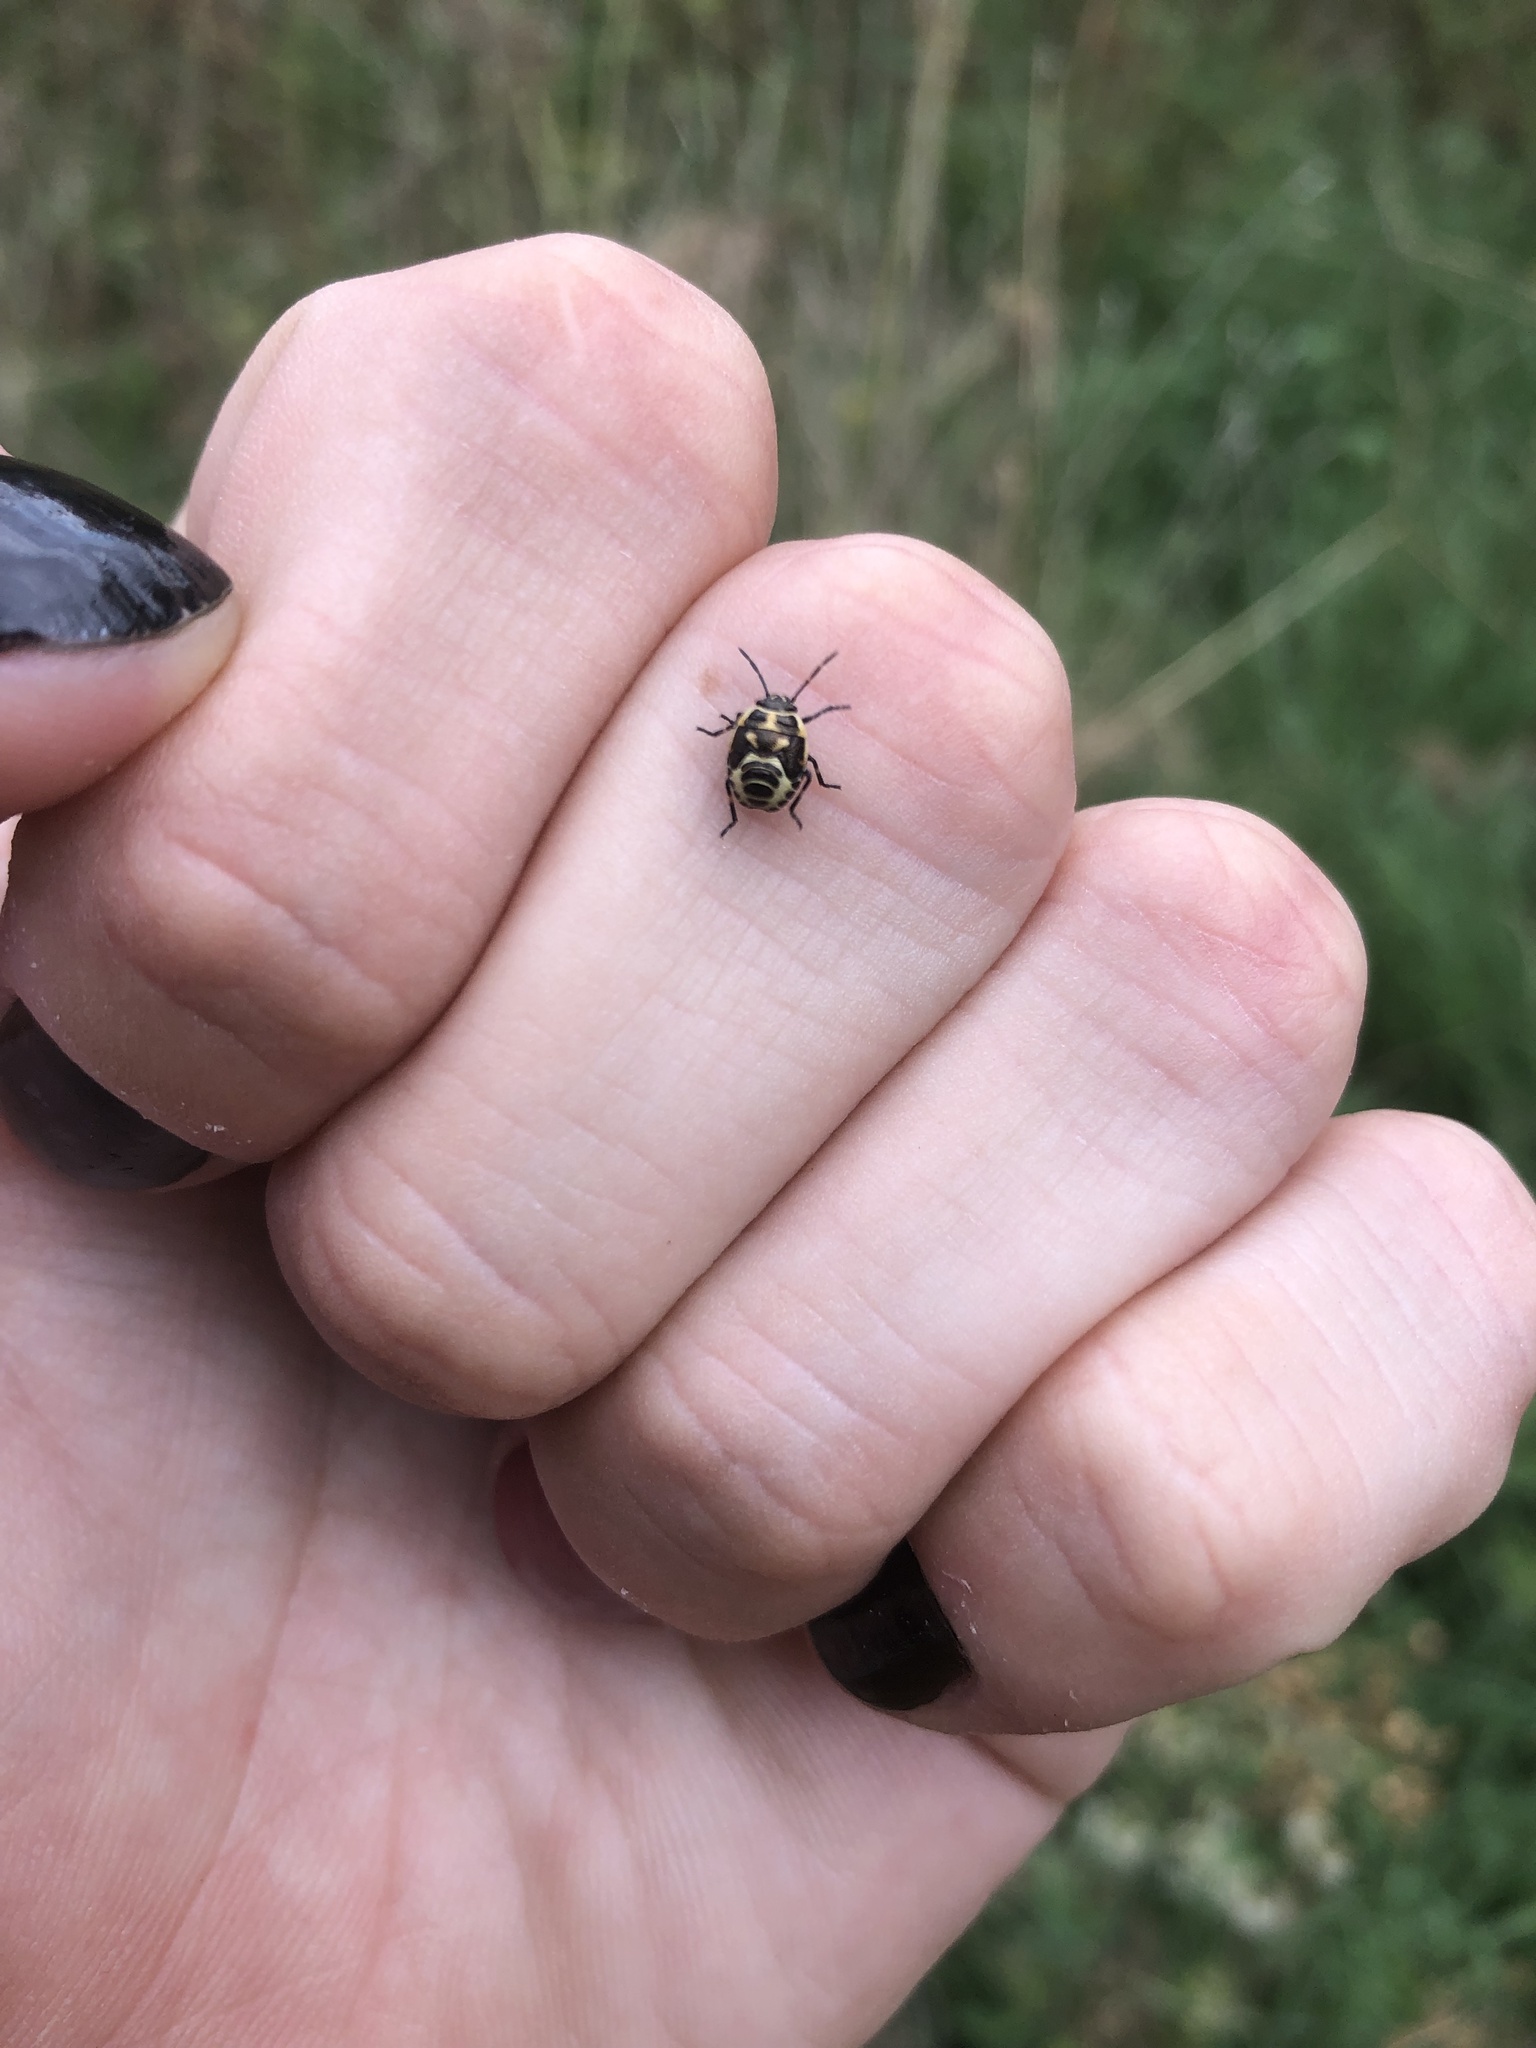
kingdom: Animalia
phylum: Arthropoda
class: Insecta
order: Hemiptera
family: Pentatomidae
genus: Eurydema
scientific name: Eurydema oleracea
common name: Cabbage bug
